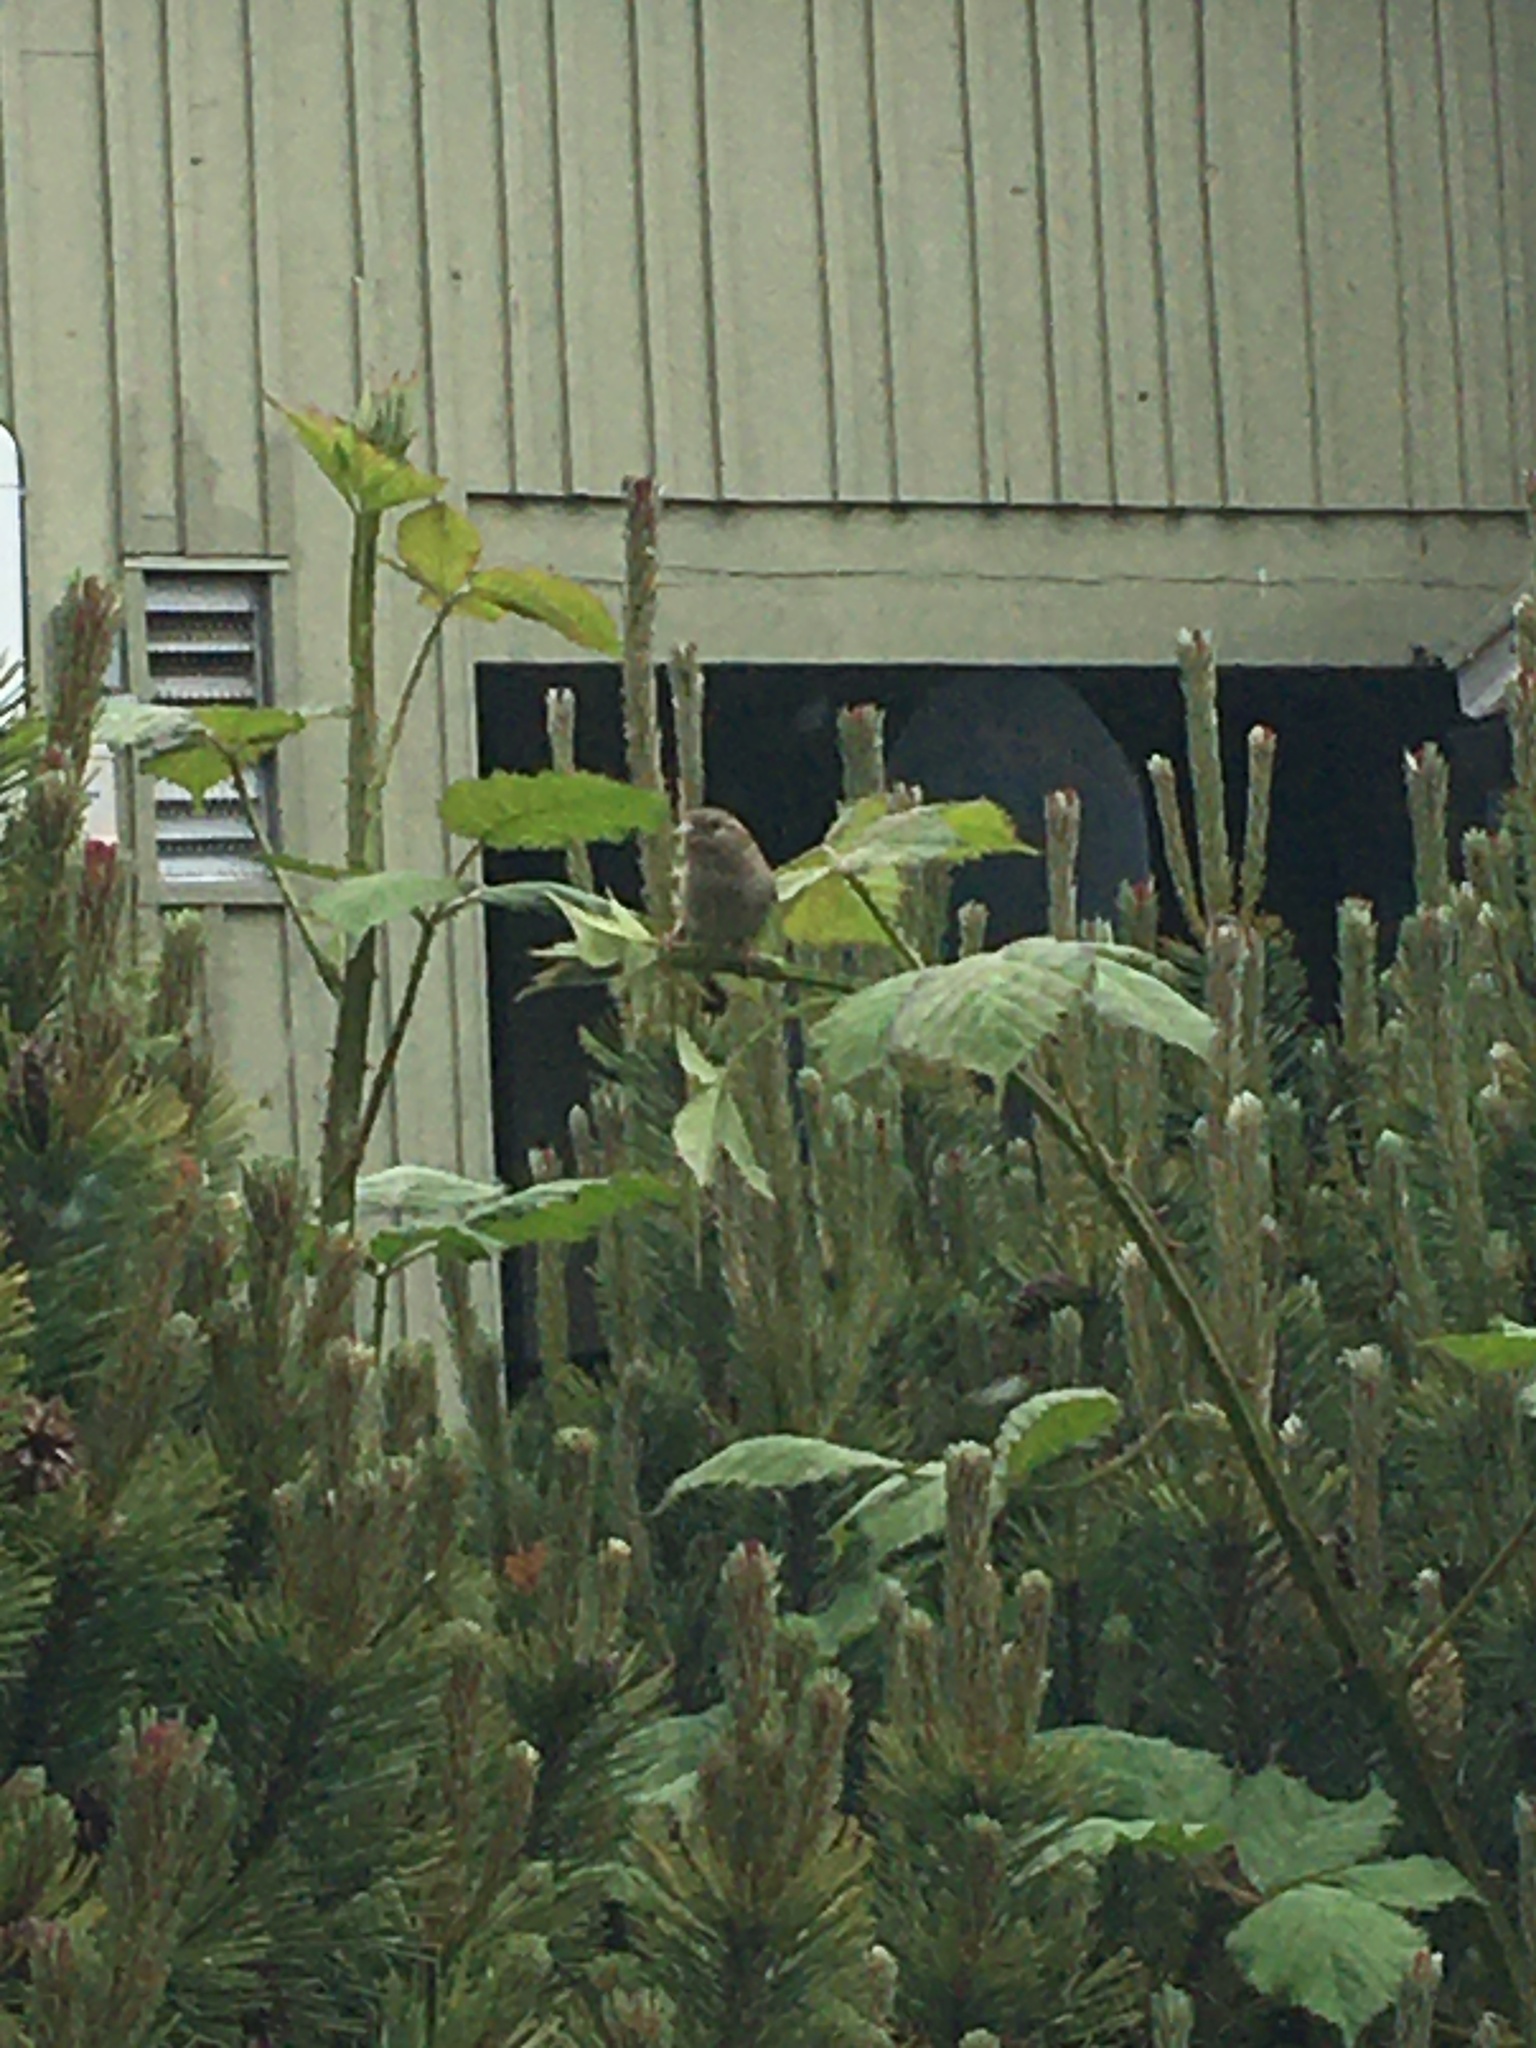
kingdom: Animalia
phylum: Chordata
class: Aves
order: Passeriformes
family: Passeridae
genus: Passer
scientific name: Passer domesticus
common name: House sparrow
